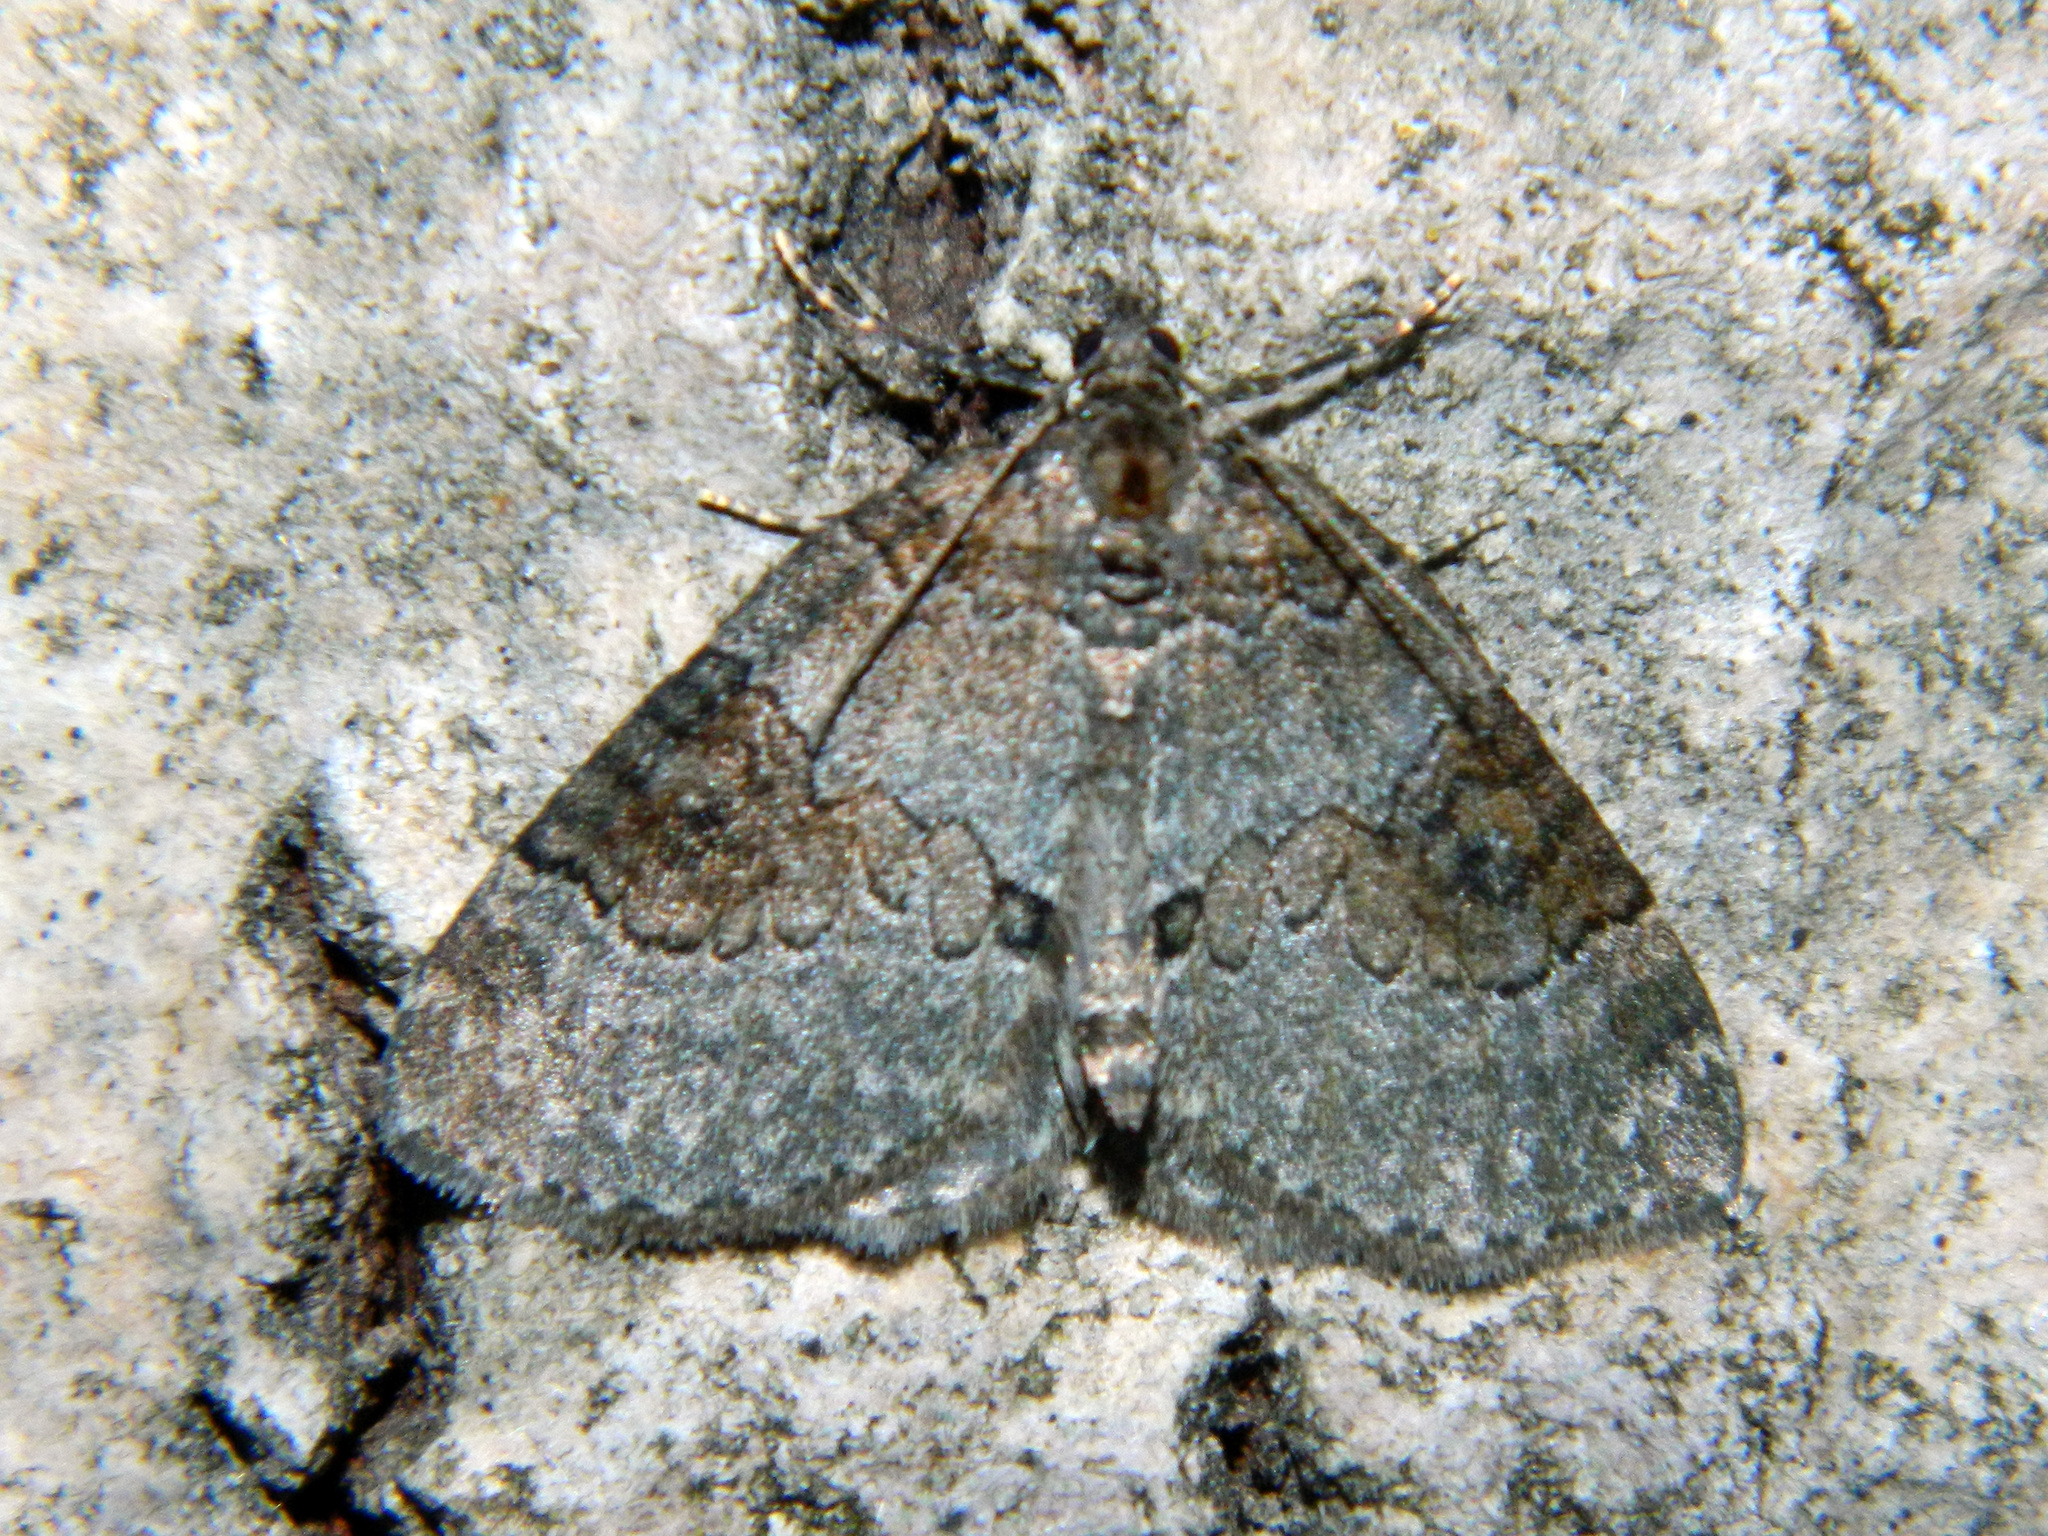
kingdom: Animalia
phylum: Arthropoda
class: Insecta
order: Lepidoptera
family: Geometridae
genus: Plemyria
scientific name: Plemyria georgii
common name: George's carpet moth
